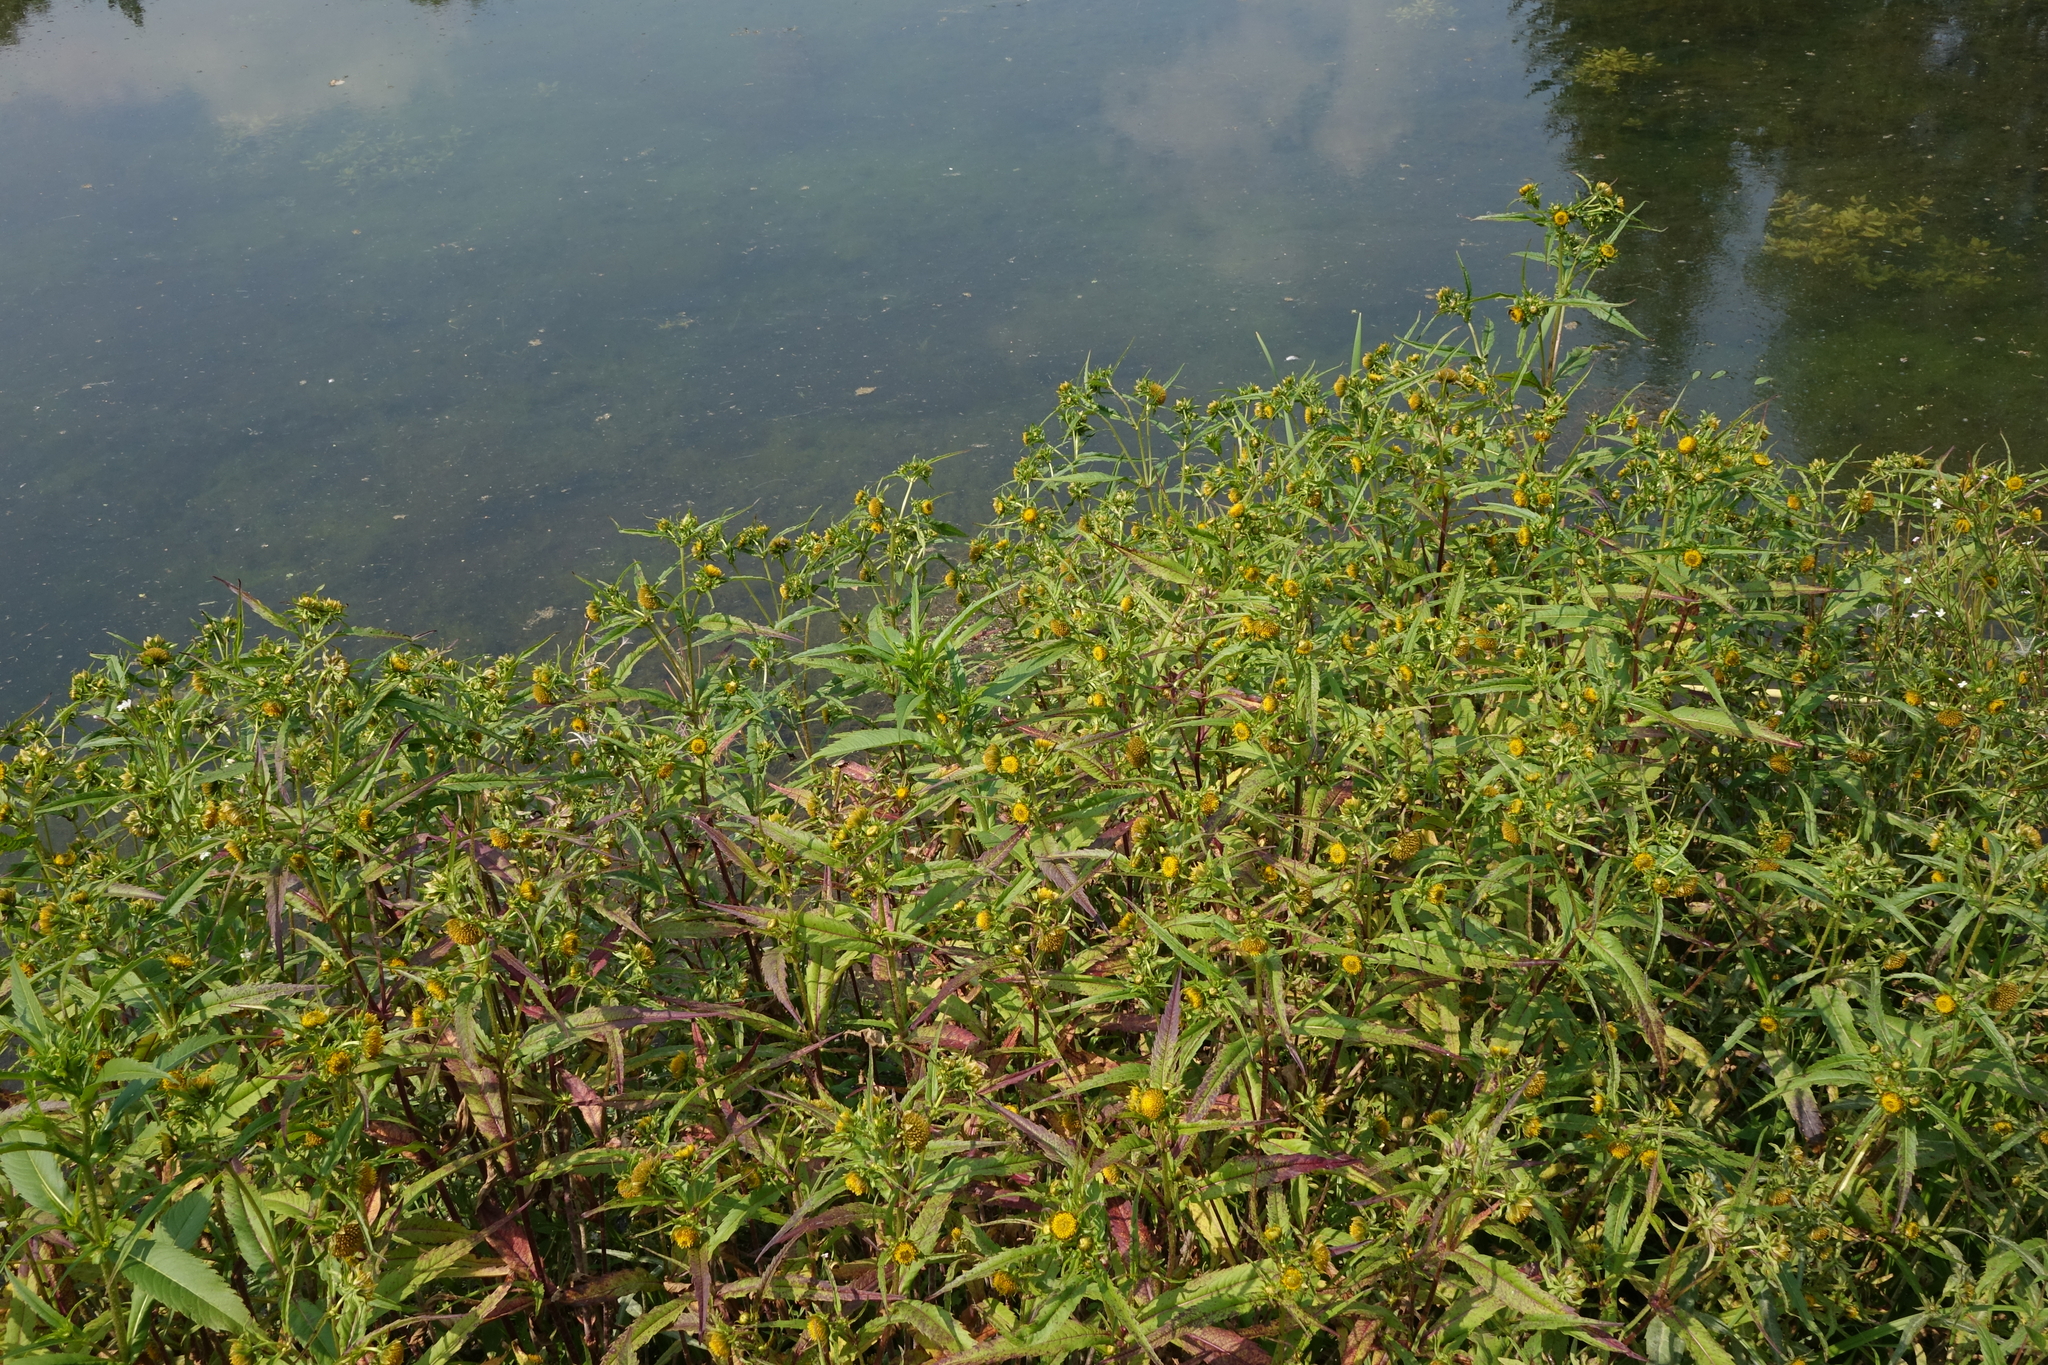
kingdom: Plantae
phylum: Tracheophyta
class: Magnoliopsida
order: Asterales
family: Asteraceae
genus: Bidens
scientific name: Bidens cernua
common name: Nodding bur-marigold
